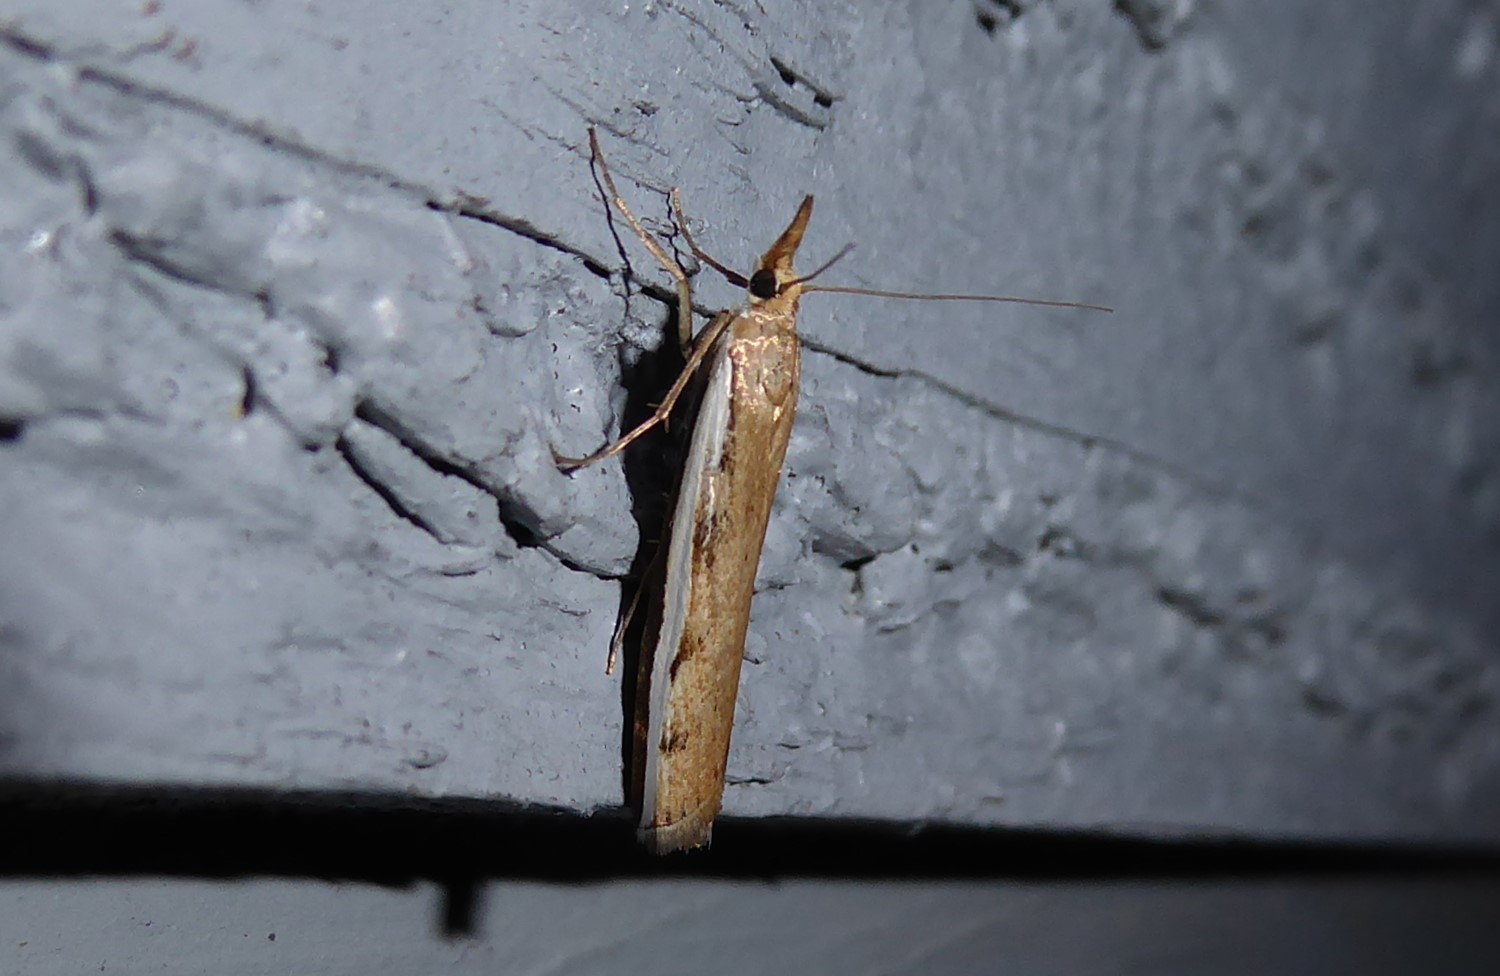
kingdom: Animalia
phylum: Arthropoda
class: Insecta
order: Lepidoptera
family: Crambidae
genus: Orocrambus
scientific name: Orocrambus flexuosellus
